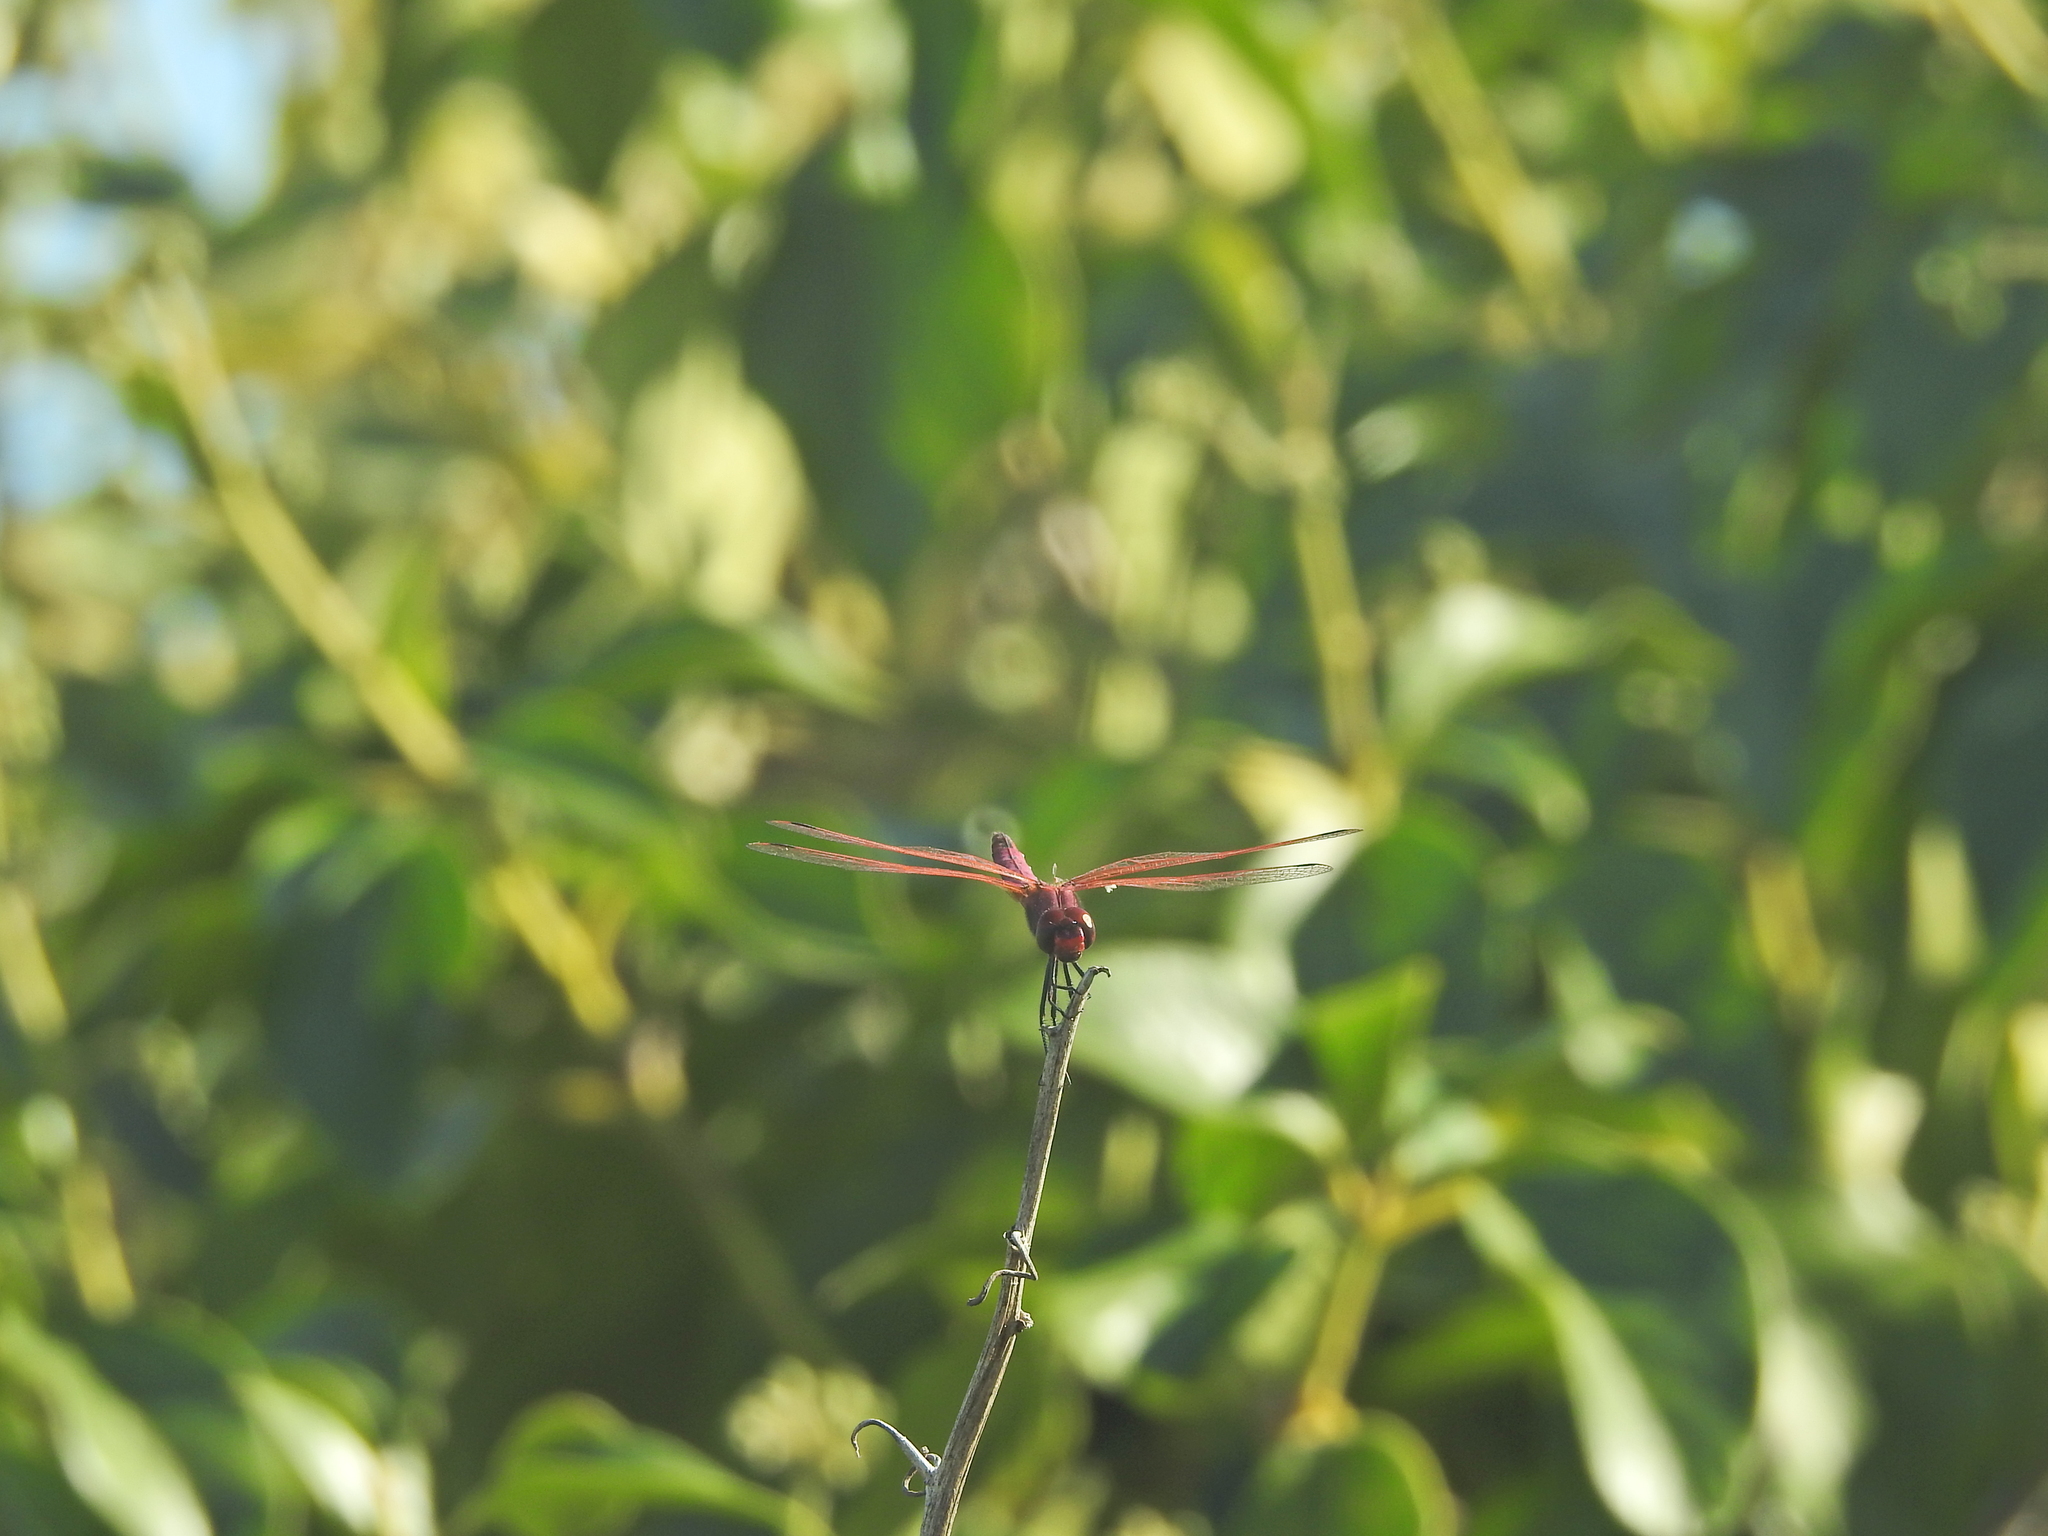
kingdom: Animalia
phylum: Arthropoda
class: Insecta
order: Odonata
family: Libellulidae
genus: Trithemis
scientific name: Trithemis annulata
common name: Violet dropwing
